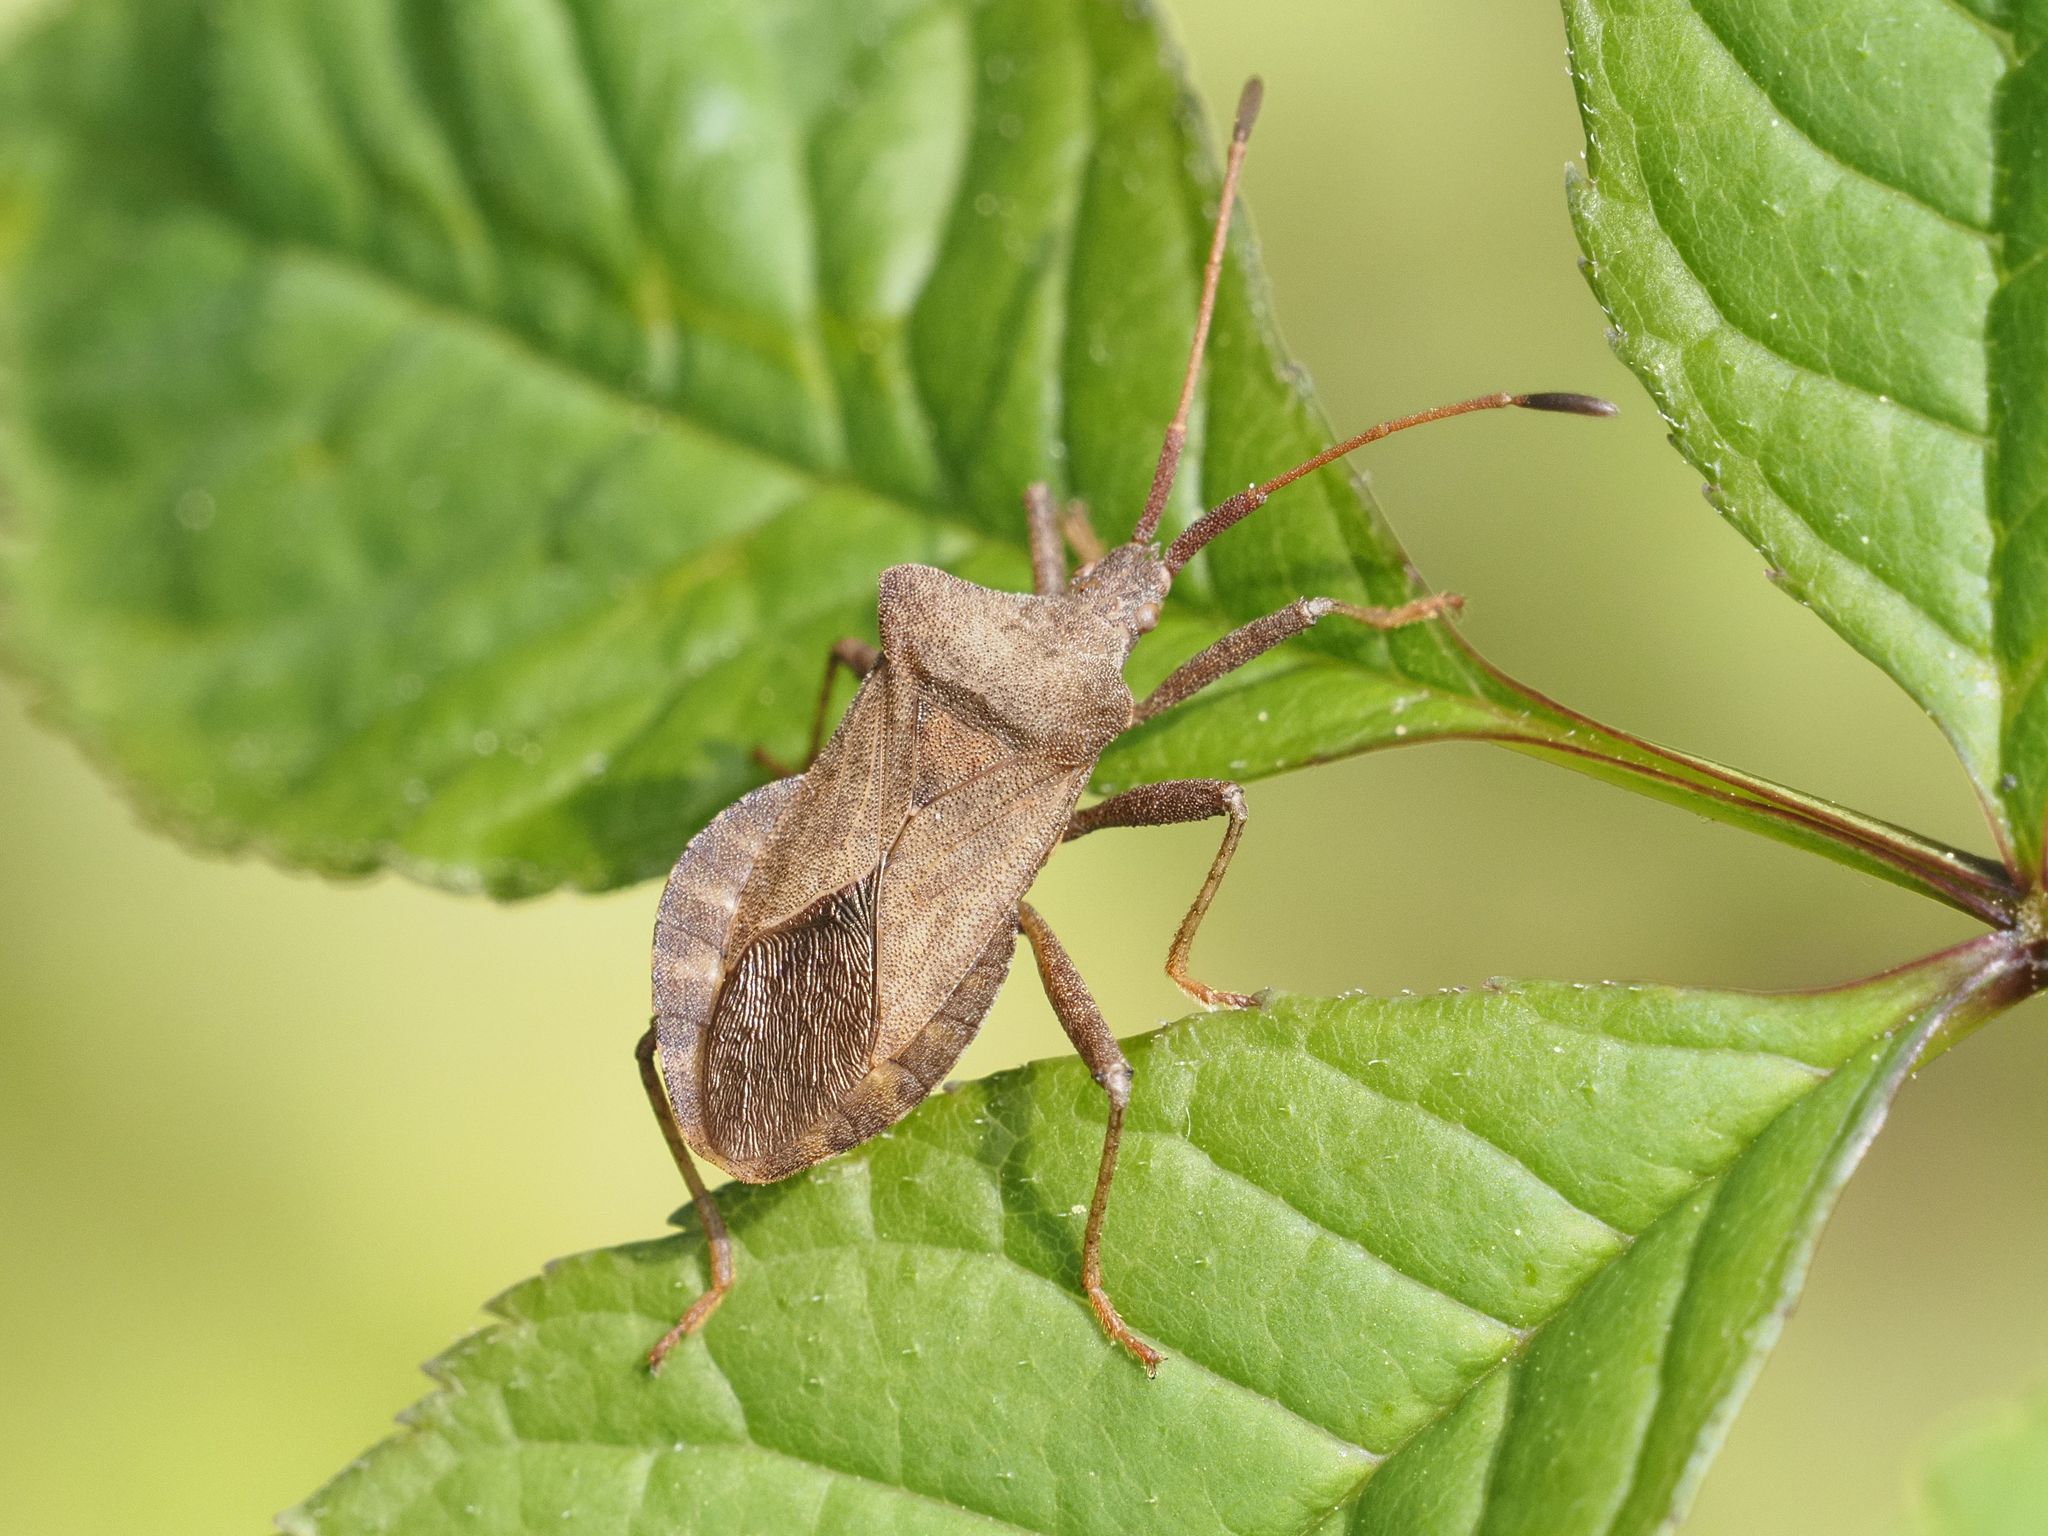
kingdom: Animalia
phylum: Arthropoda
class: Insecta
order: Hemiptera
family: Coreidae
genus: Coreus
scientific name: Coreus marginatus
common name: Dock bug
